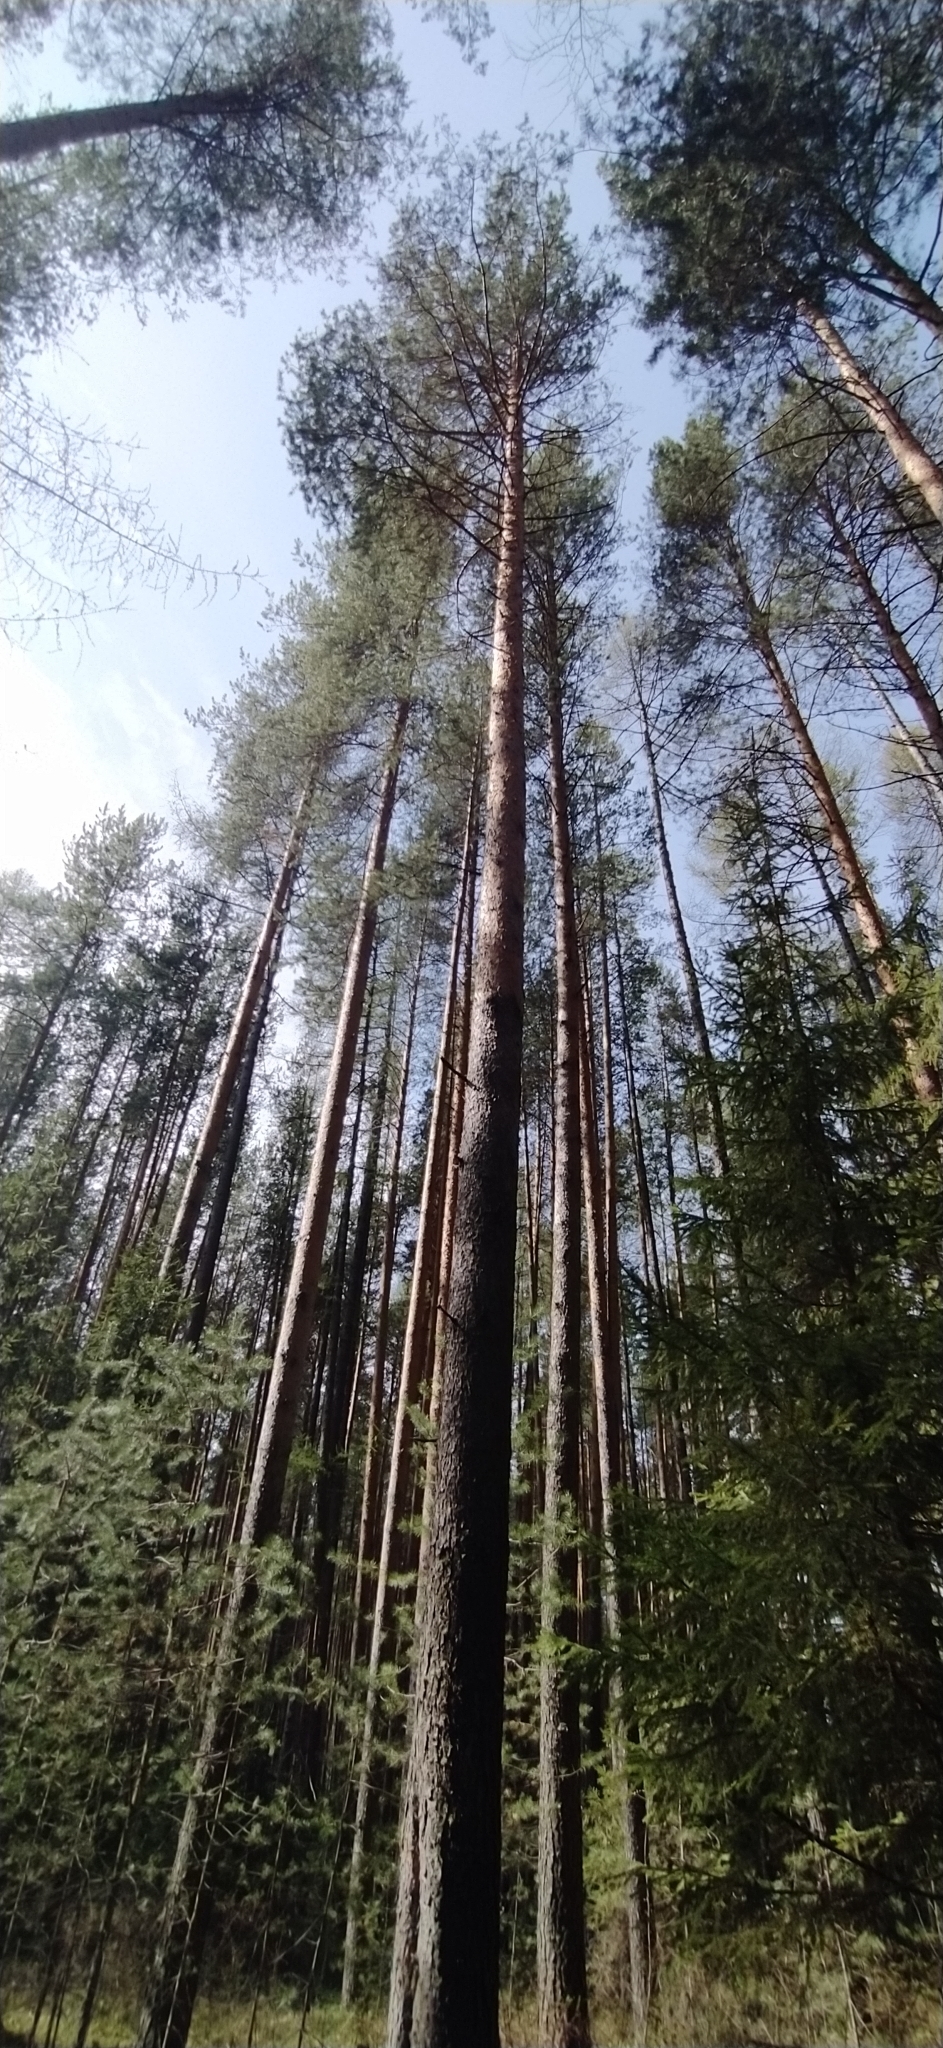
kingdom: Plantae
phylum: Tracheophyta
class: Pinopsida
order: Pinales
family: Pinaceae
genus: Pinus
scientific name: Pinus sylvestris
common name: Scots pine
